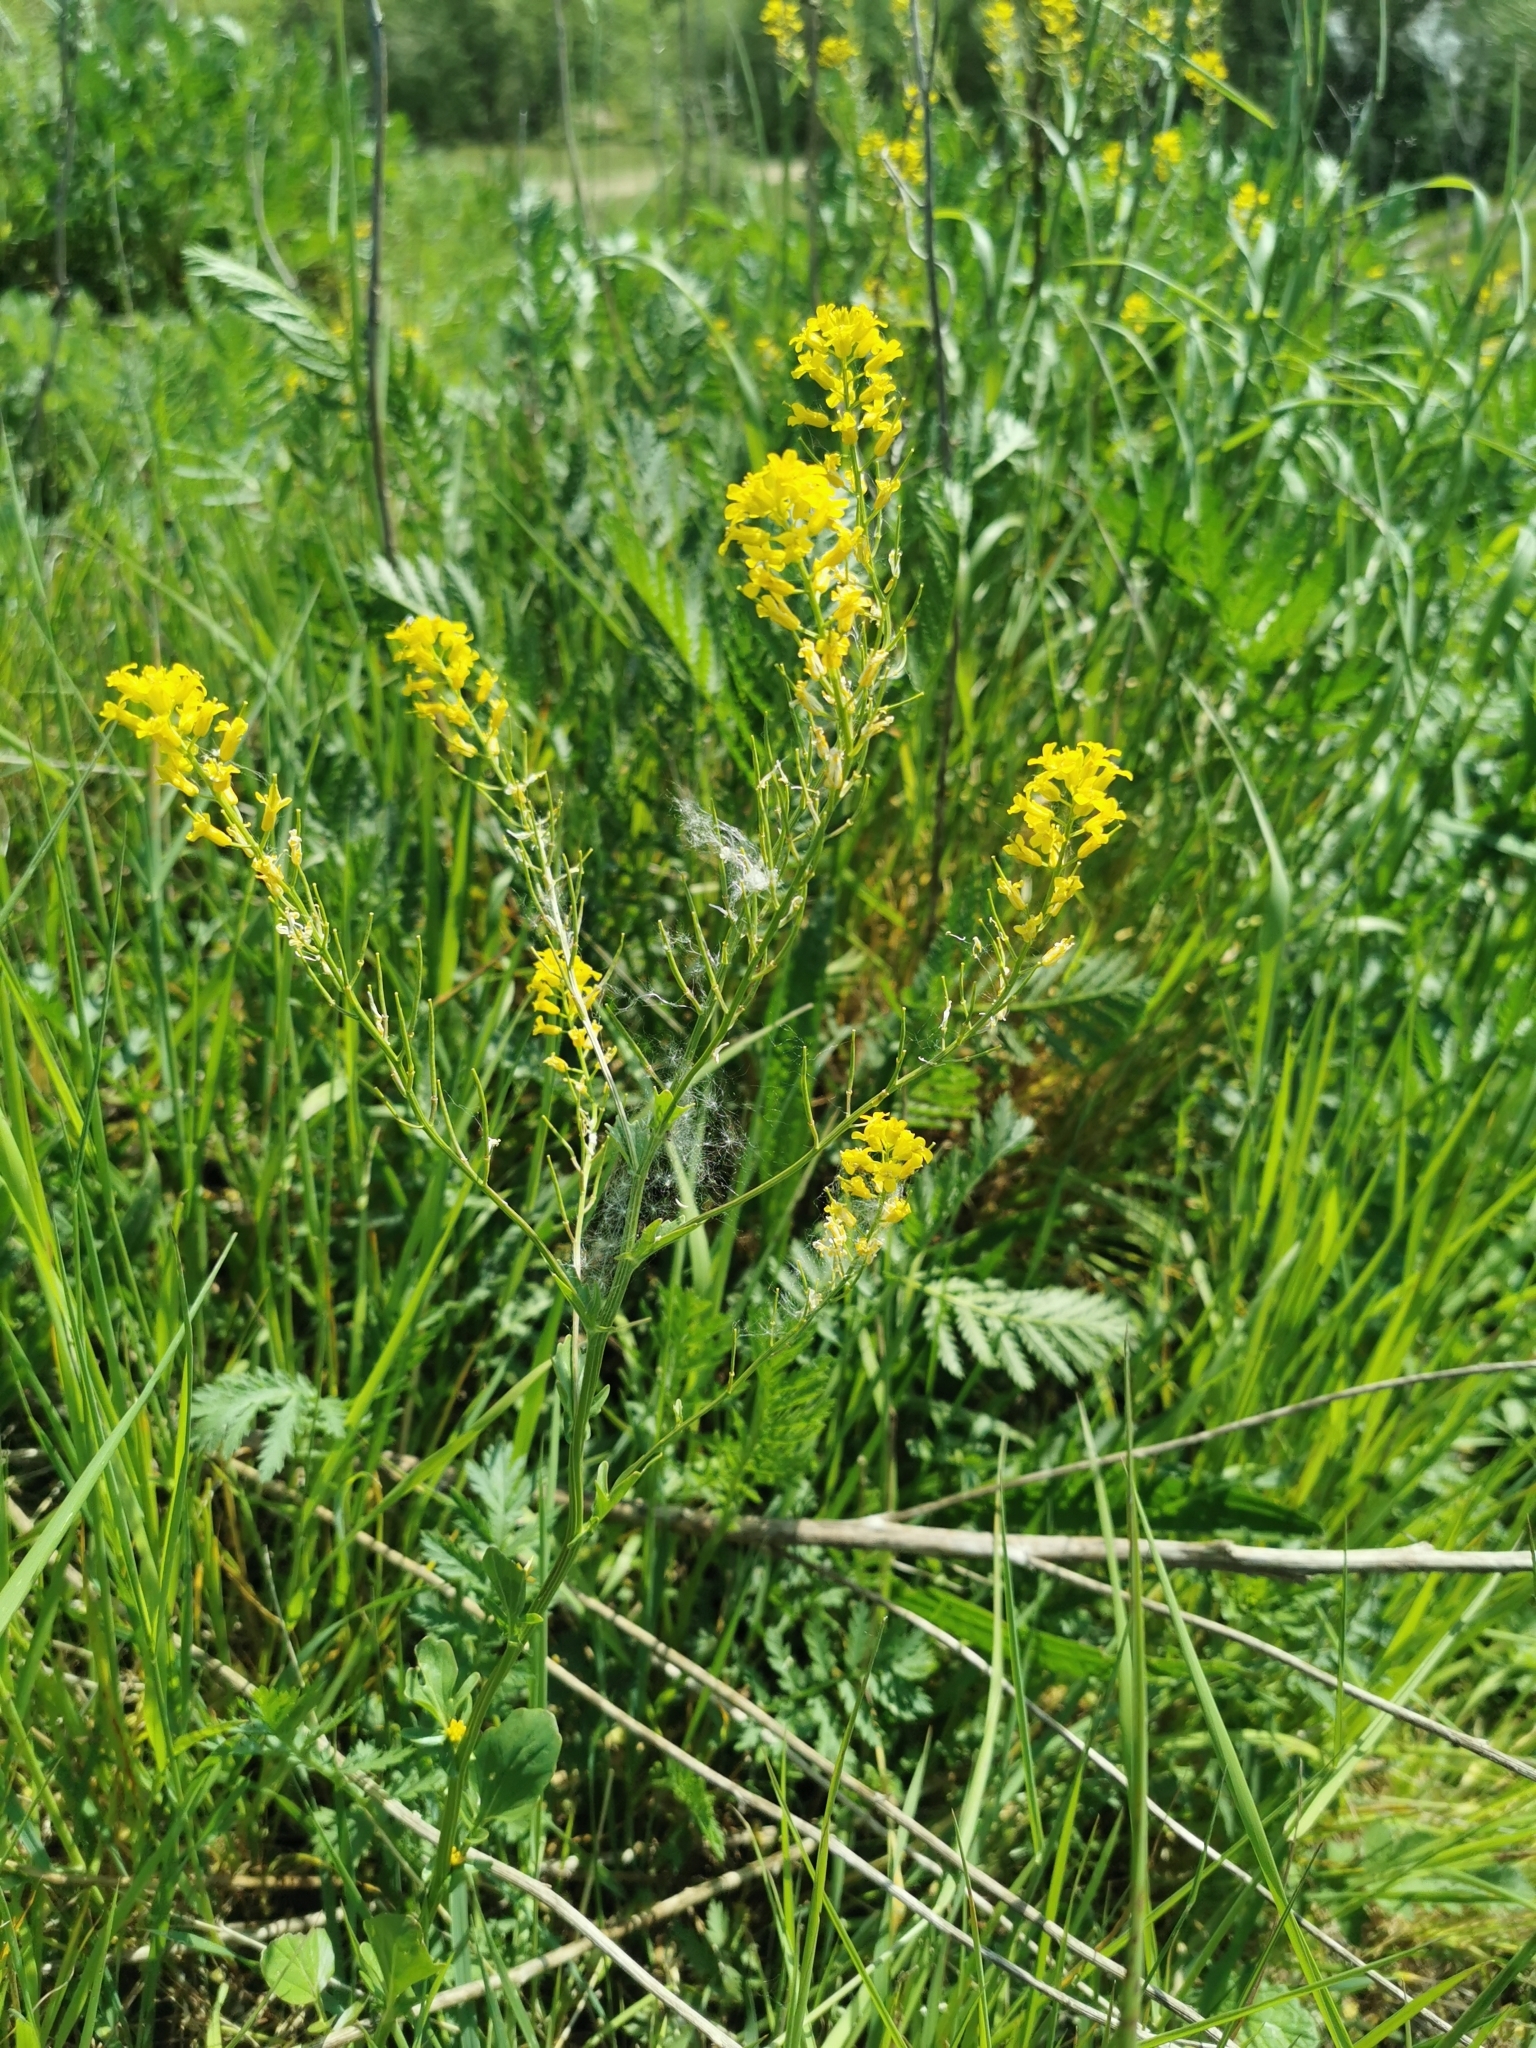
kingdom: Plantae
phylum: Tracheophyta
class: Magnoliopsida
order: Brassicales
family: Brassicaceae
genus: Barbarea
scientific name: Barbarea vulgaris
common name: Cressy-greens
